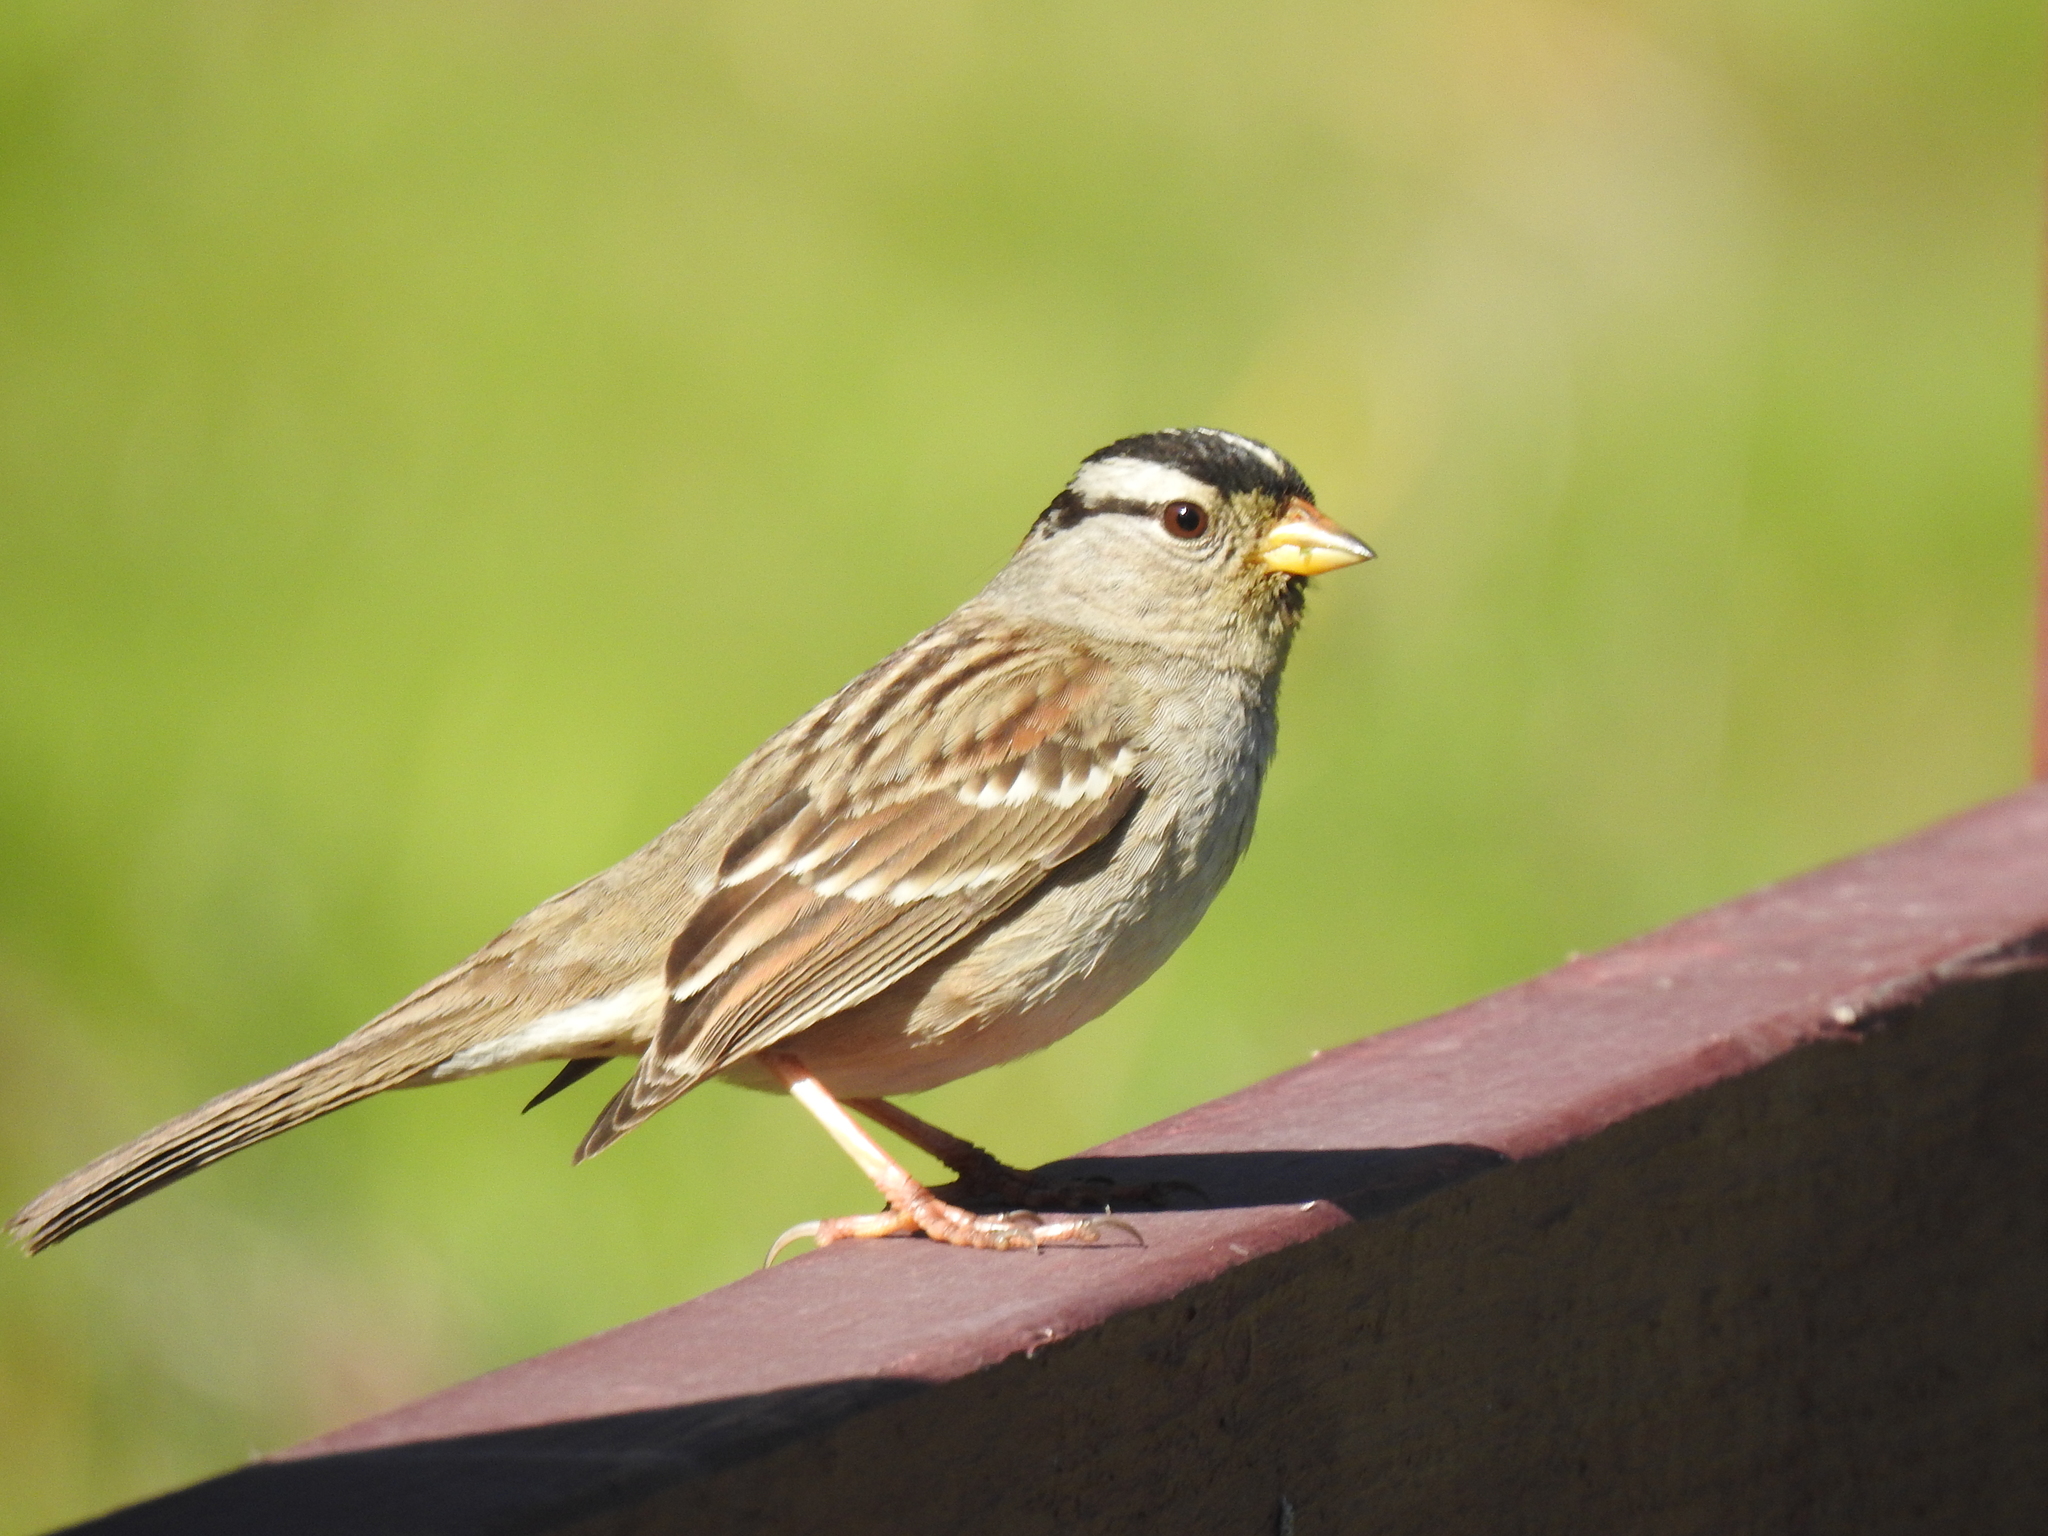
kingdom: Animalia
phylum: Chordata
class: Aves
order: Passeriformes
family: Passerellidae
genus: Zonotrichia
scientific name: Zonotrichia leucophrys
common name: White-crowned sparrow
